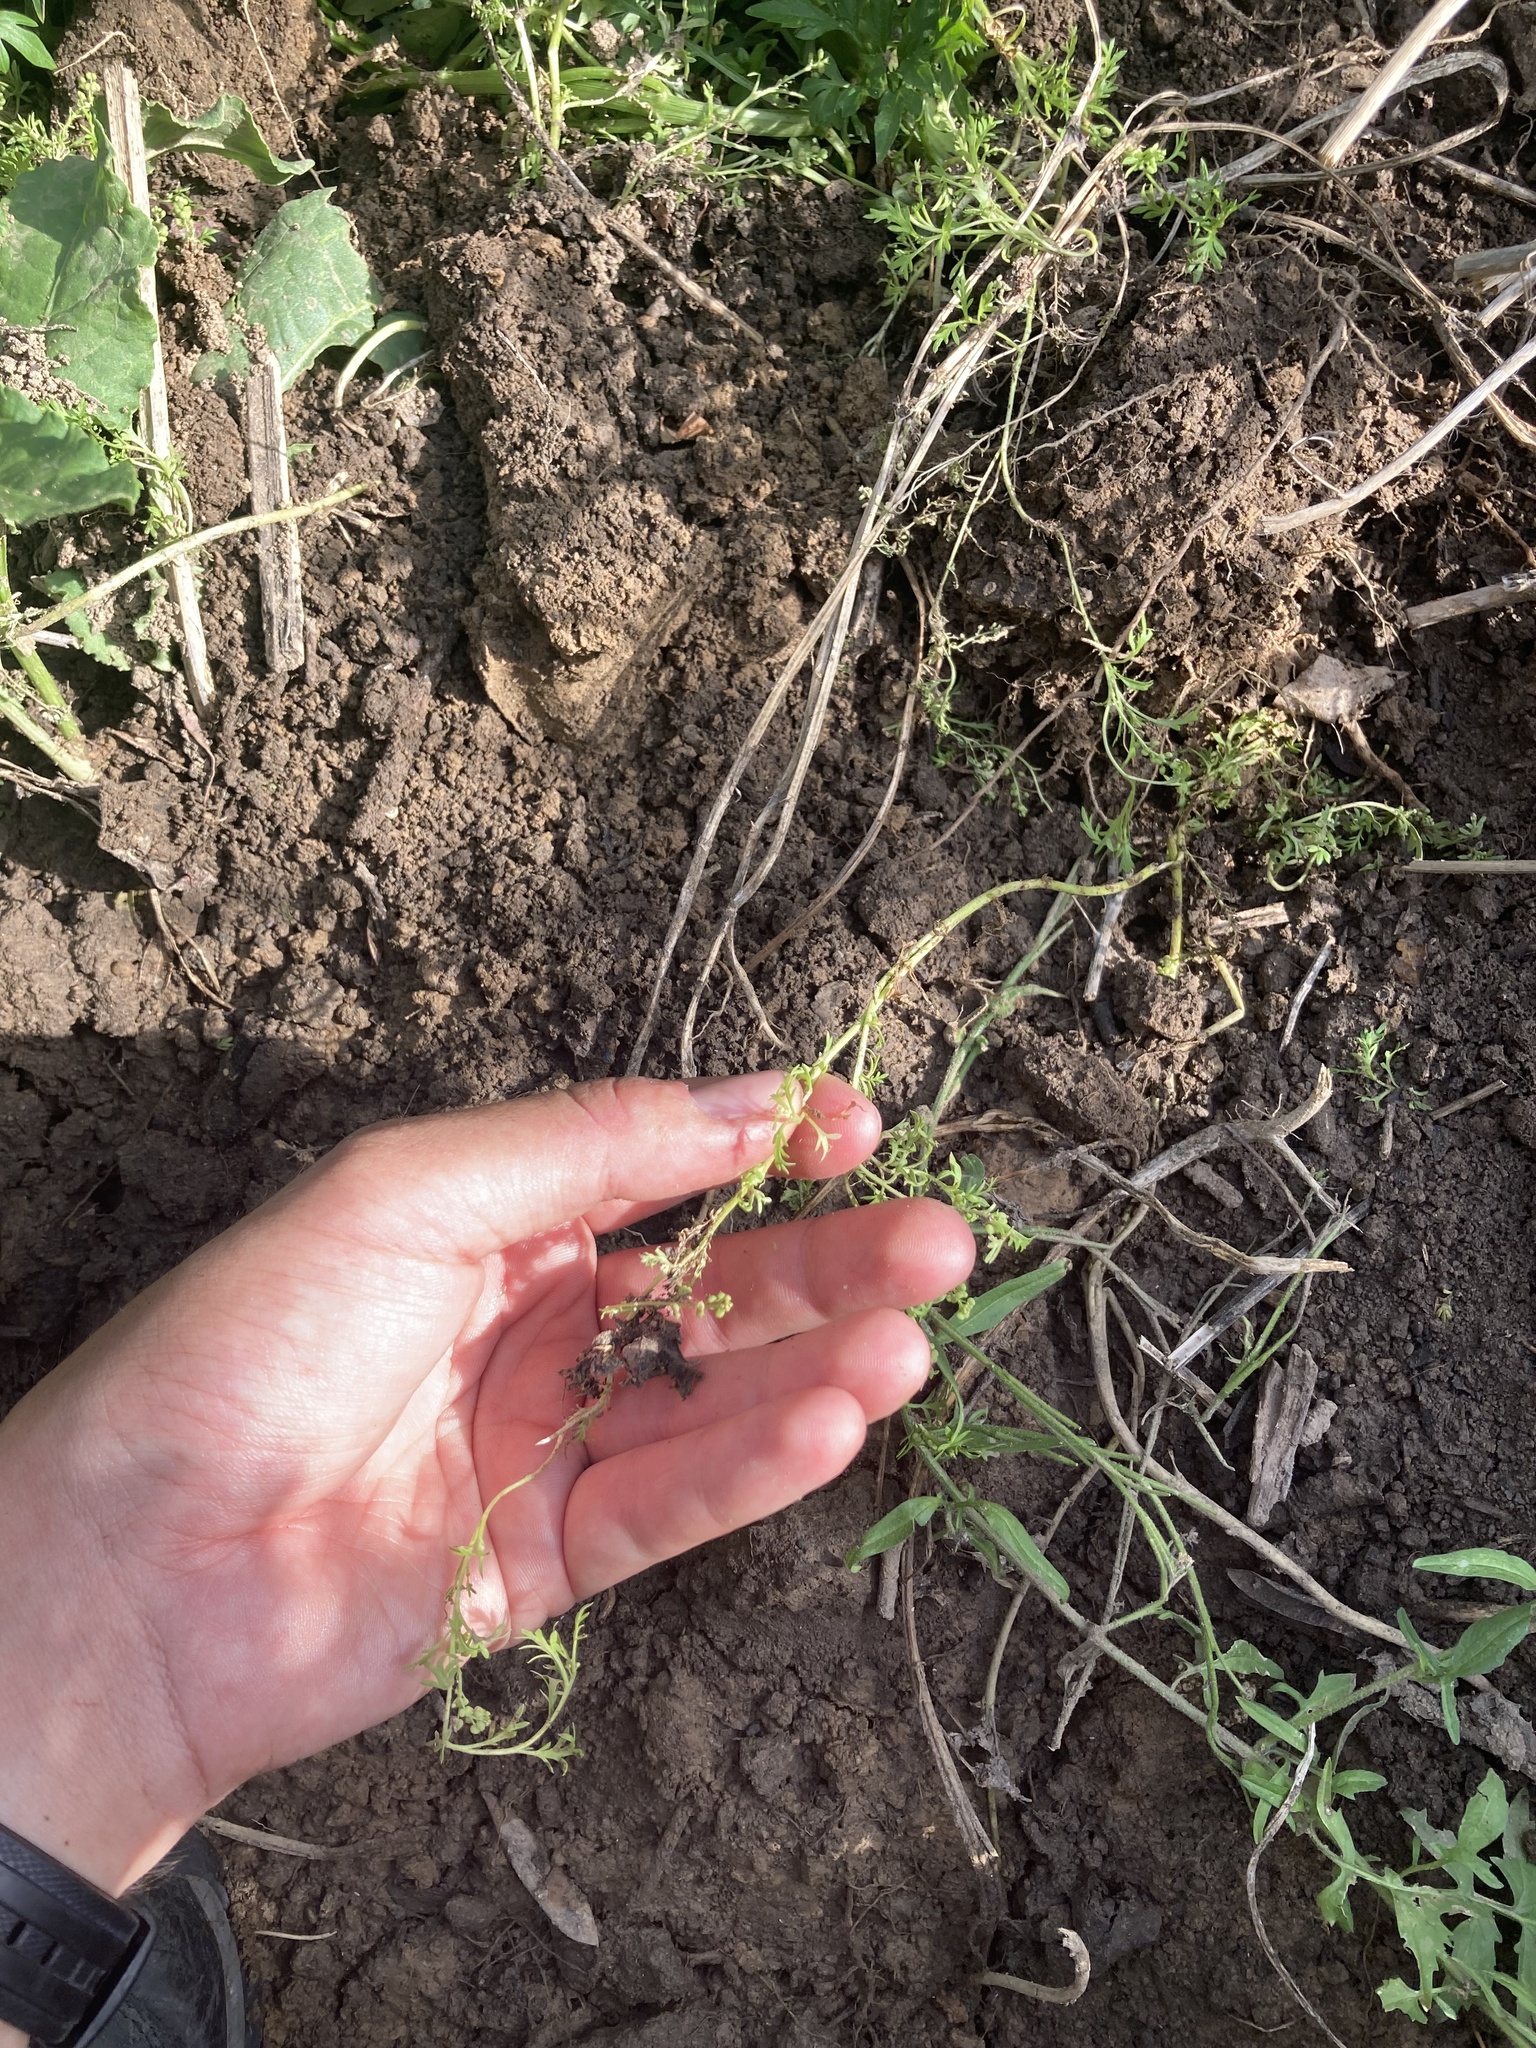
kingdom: Plantae
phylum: Tracheophyta
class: Magnoliopsida
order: Brassicales
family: Brassicaceae
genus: Lepidium
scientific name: Lepidium didymum
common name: Lesser swinecress
